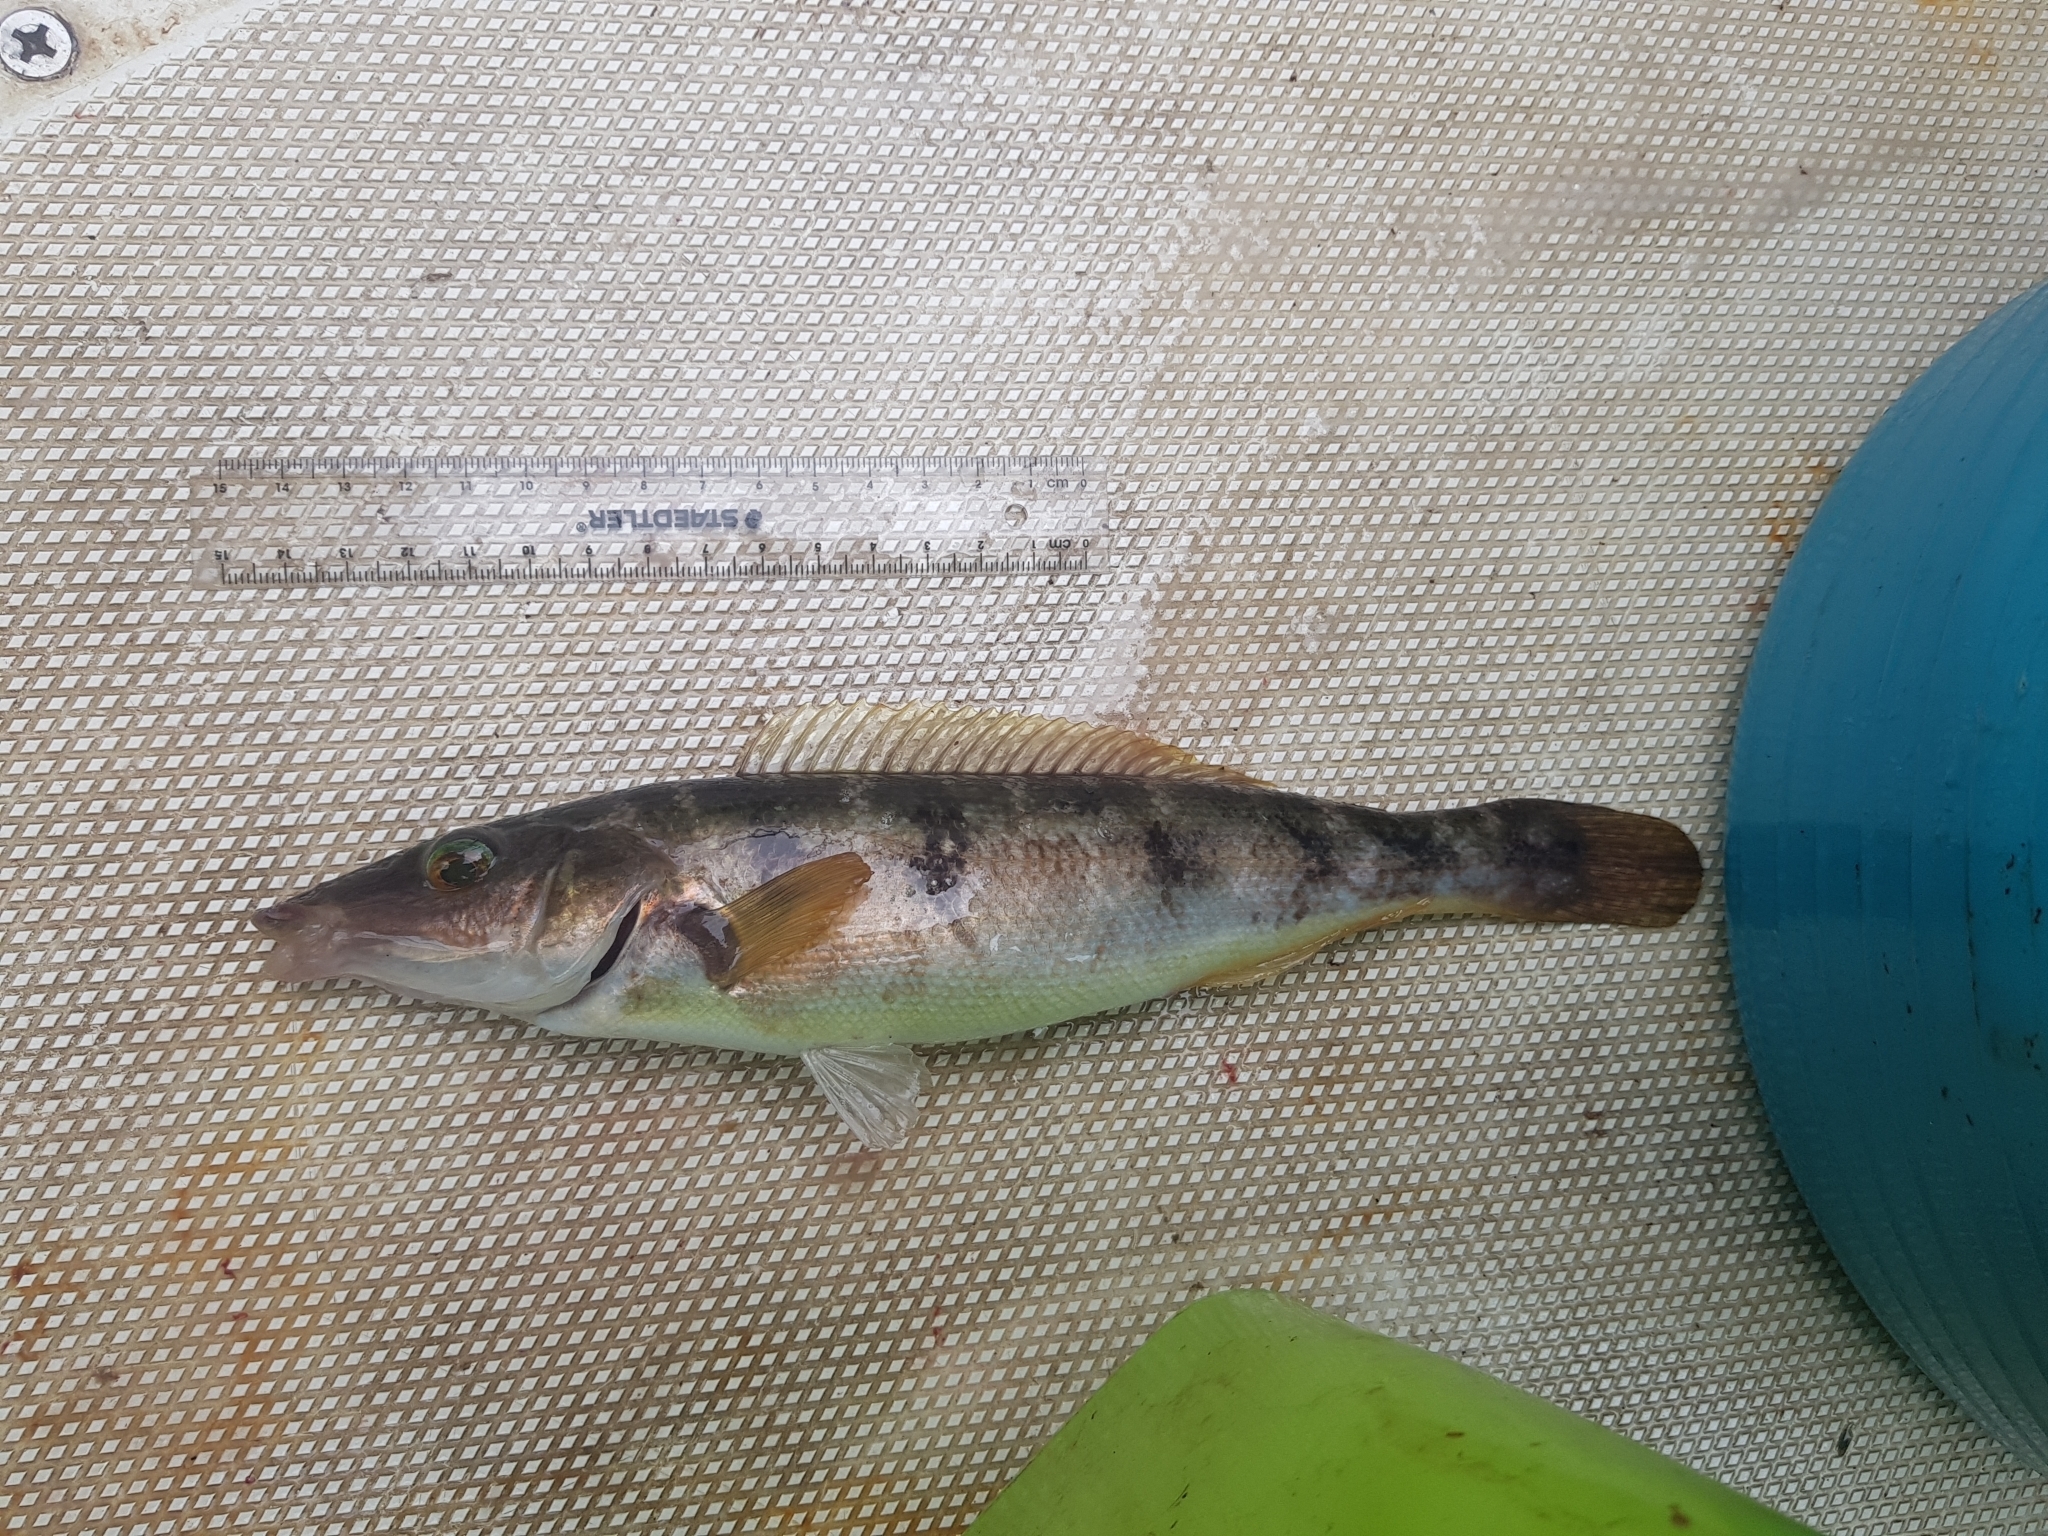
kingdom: Animalia
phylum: Chordata
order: Perciformes
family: Odacidae
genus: Haletta
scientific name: Haletta semifasciata
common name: Blue rock whiting
